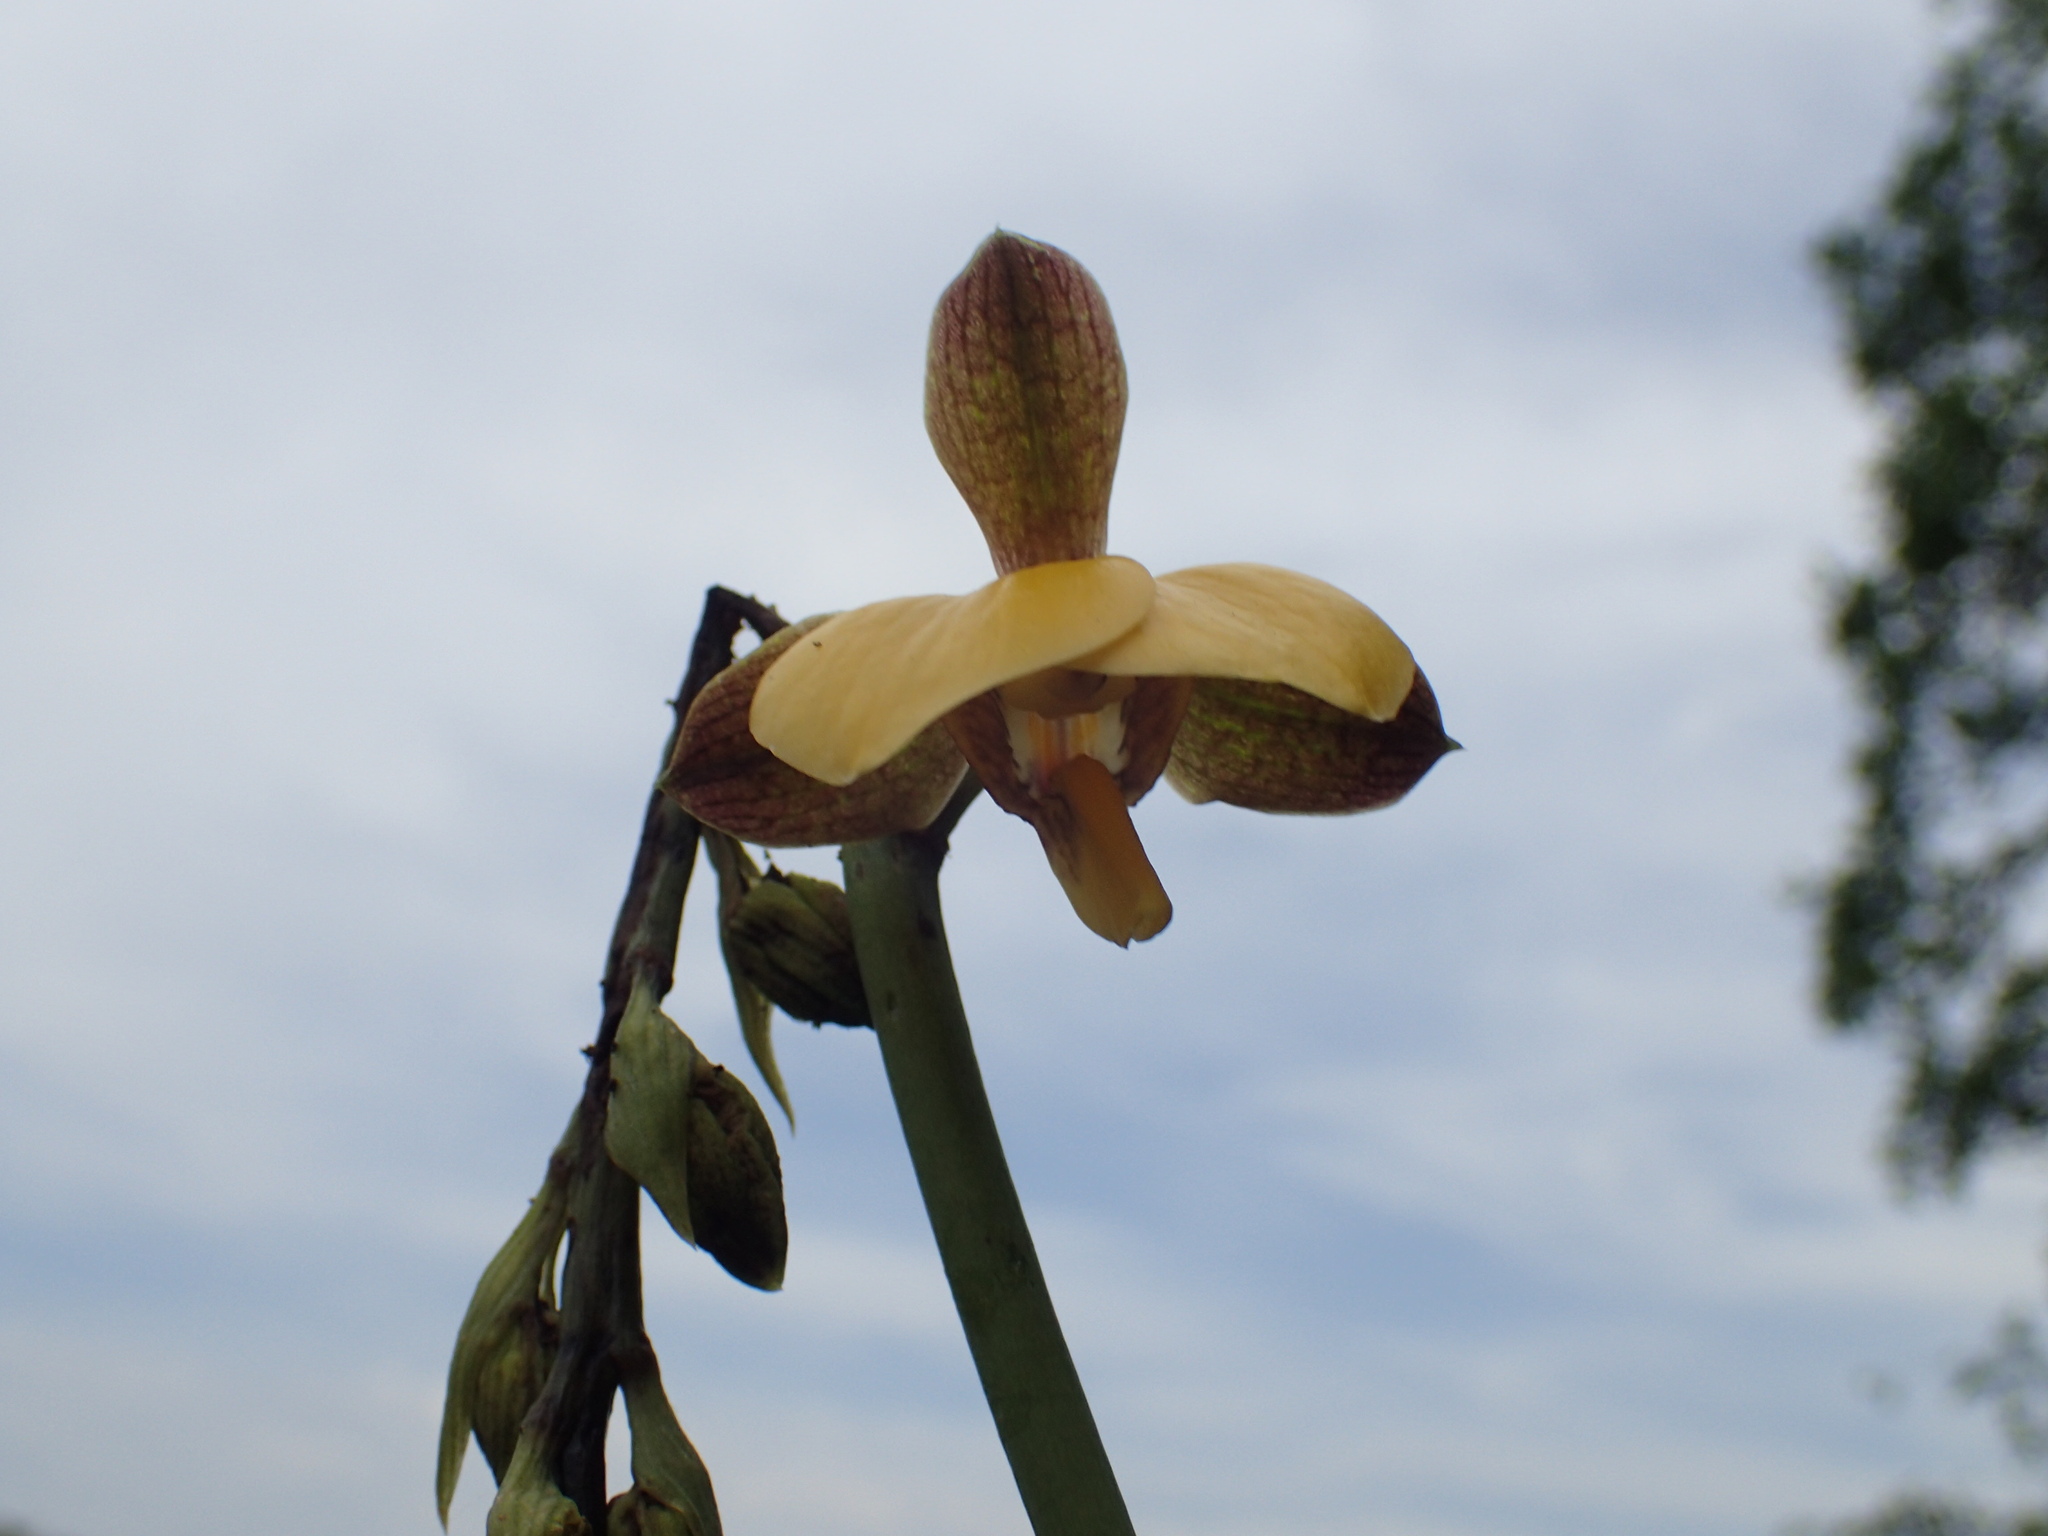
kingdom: Plantae
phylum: Tracheophyta
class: Liliopsida
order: Asparagales
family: Orchidaceae
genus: Eulophia
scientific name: Eulophia streptopetala
